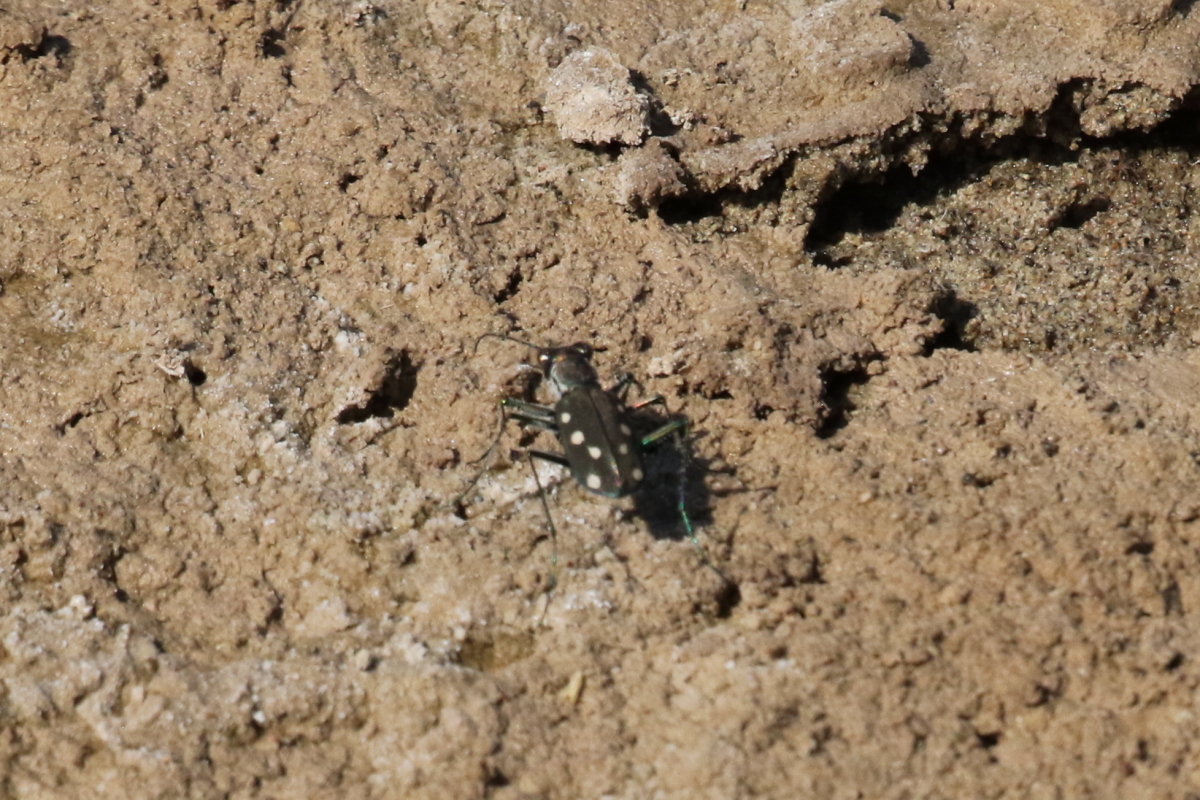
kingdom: Animalia
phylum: Arthropoda
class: Insecta
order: Coleoptera
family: Carabidae
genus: Cicindela
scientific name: Cicindela ocellata
